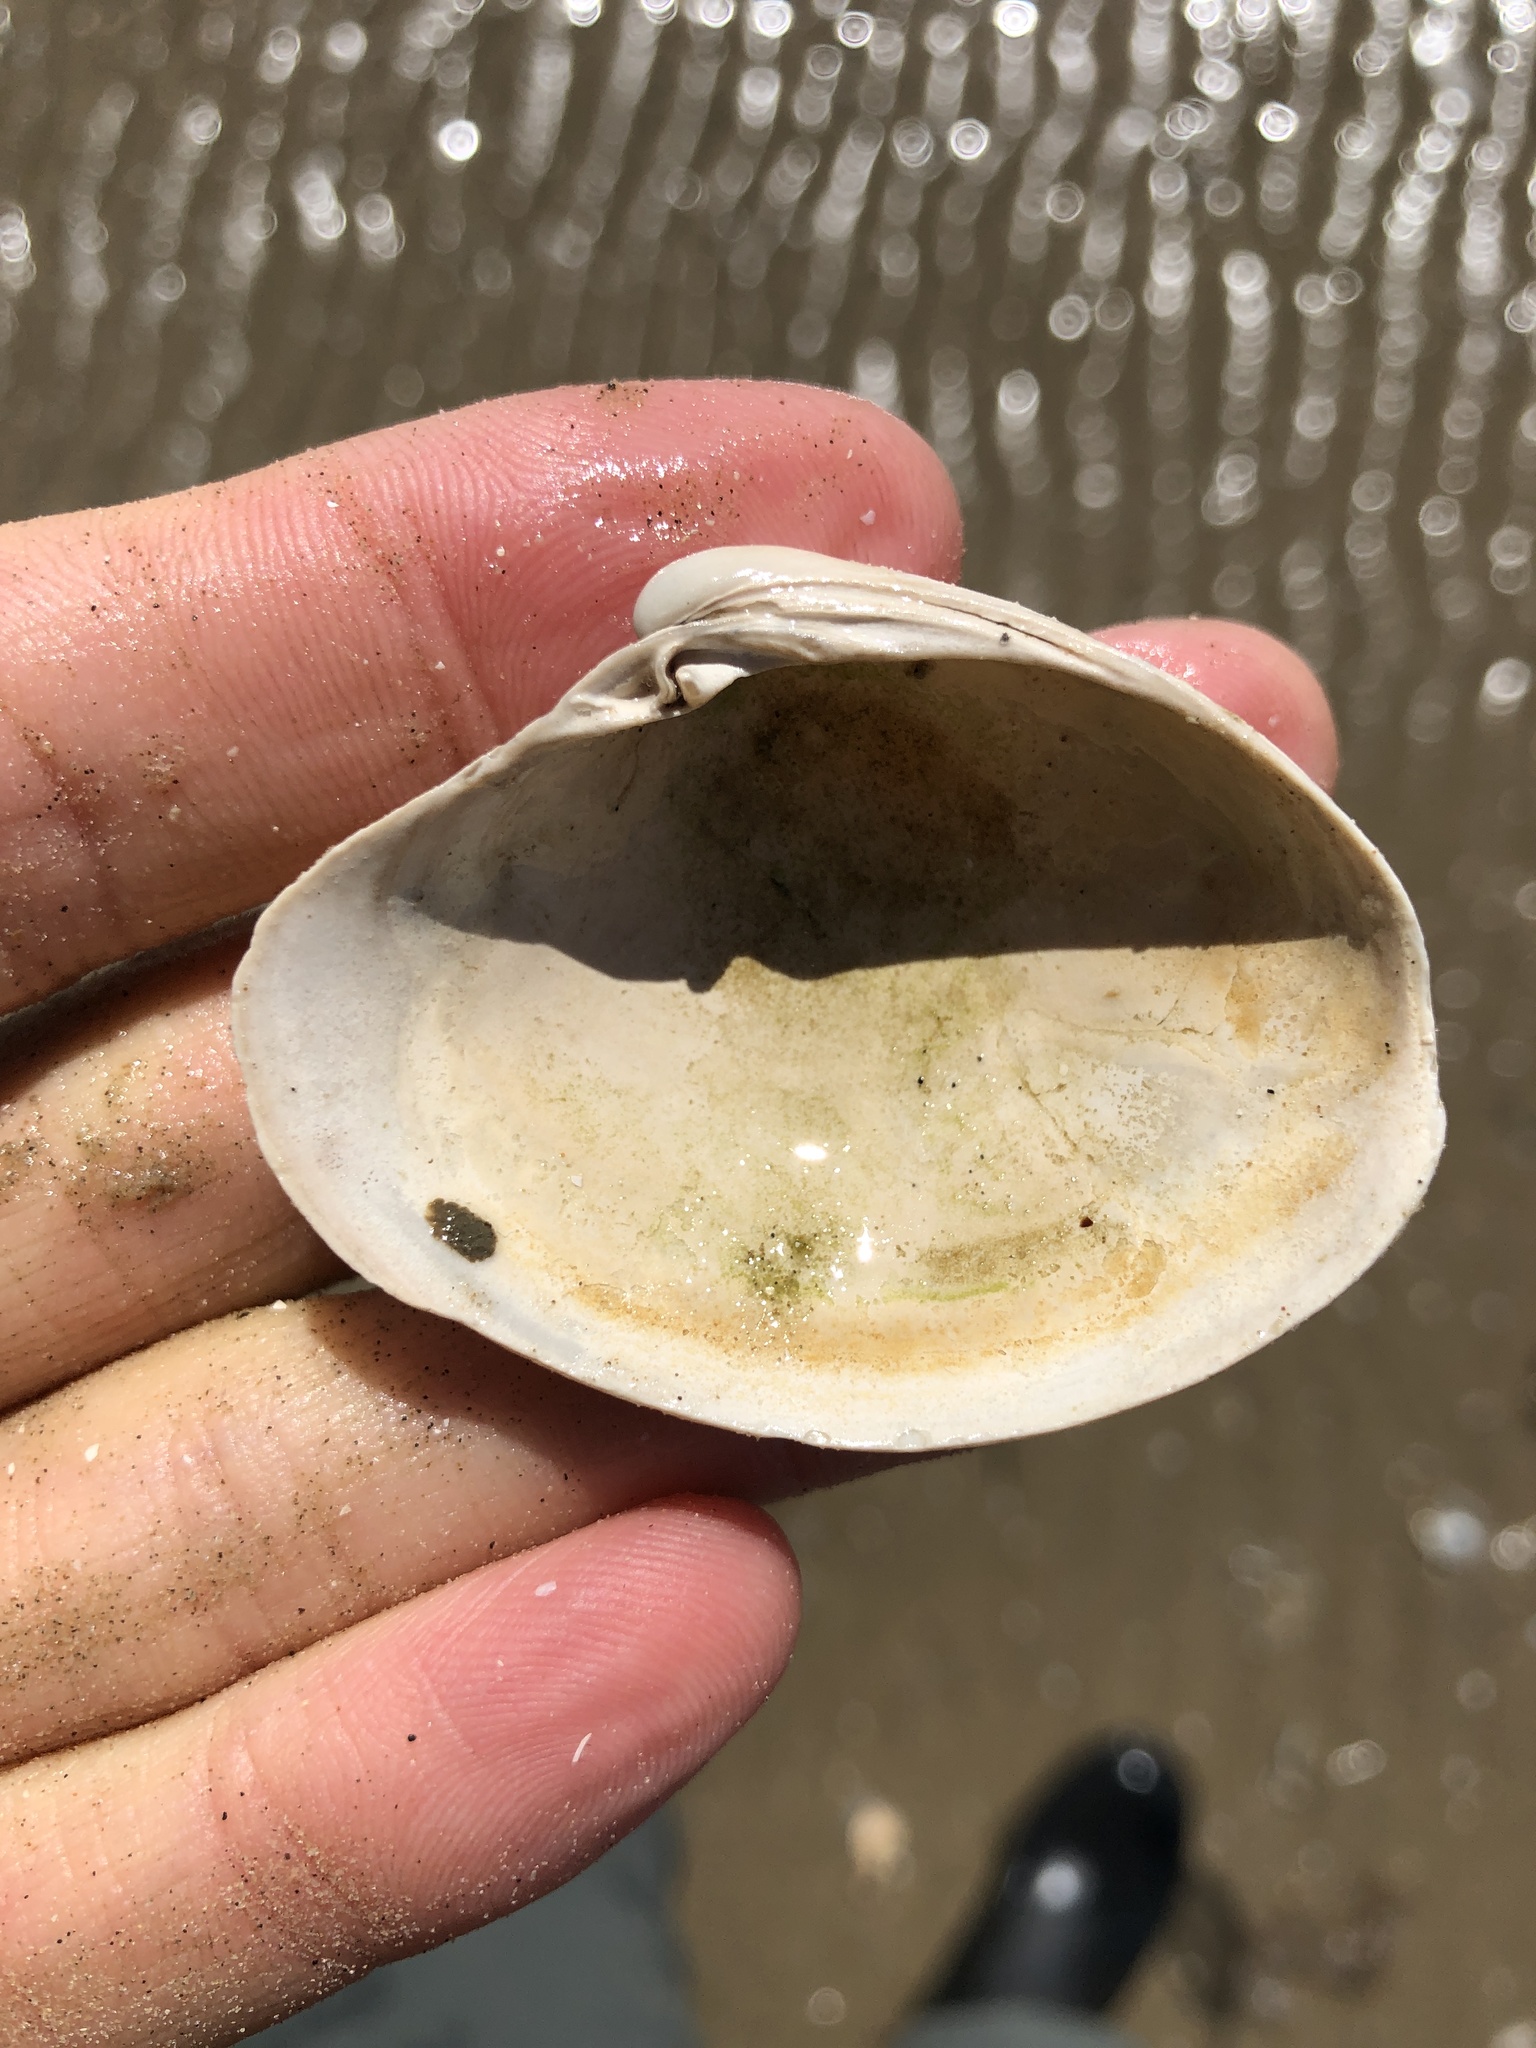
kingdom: Animalia
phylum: Mollusca
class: Bivalvia
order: Venerida
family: Veneridae
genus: Agriopoma
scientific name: Agriopoma texasianum
